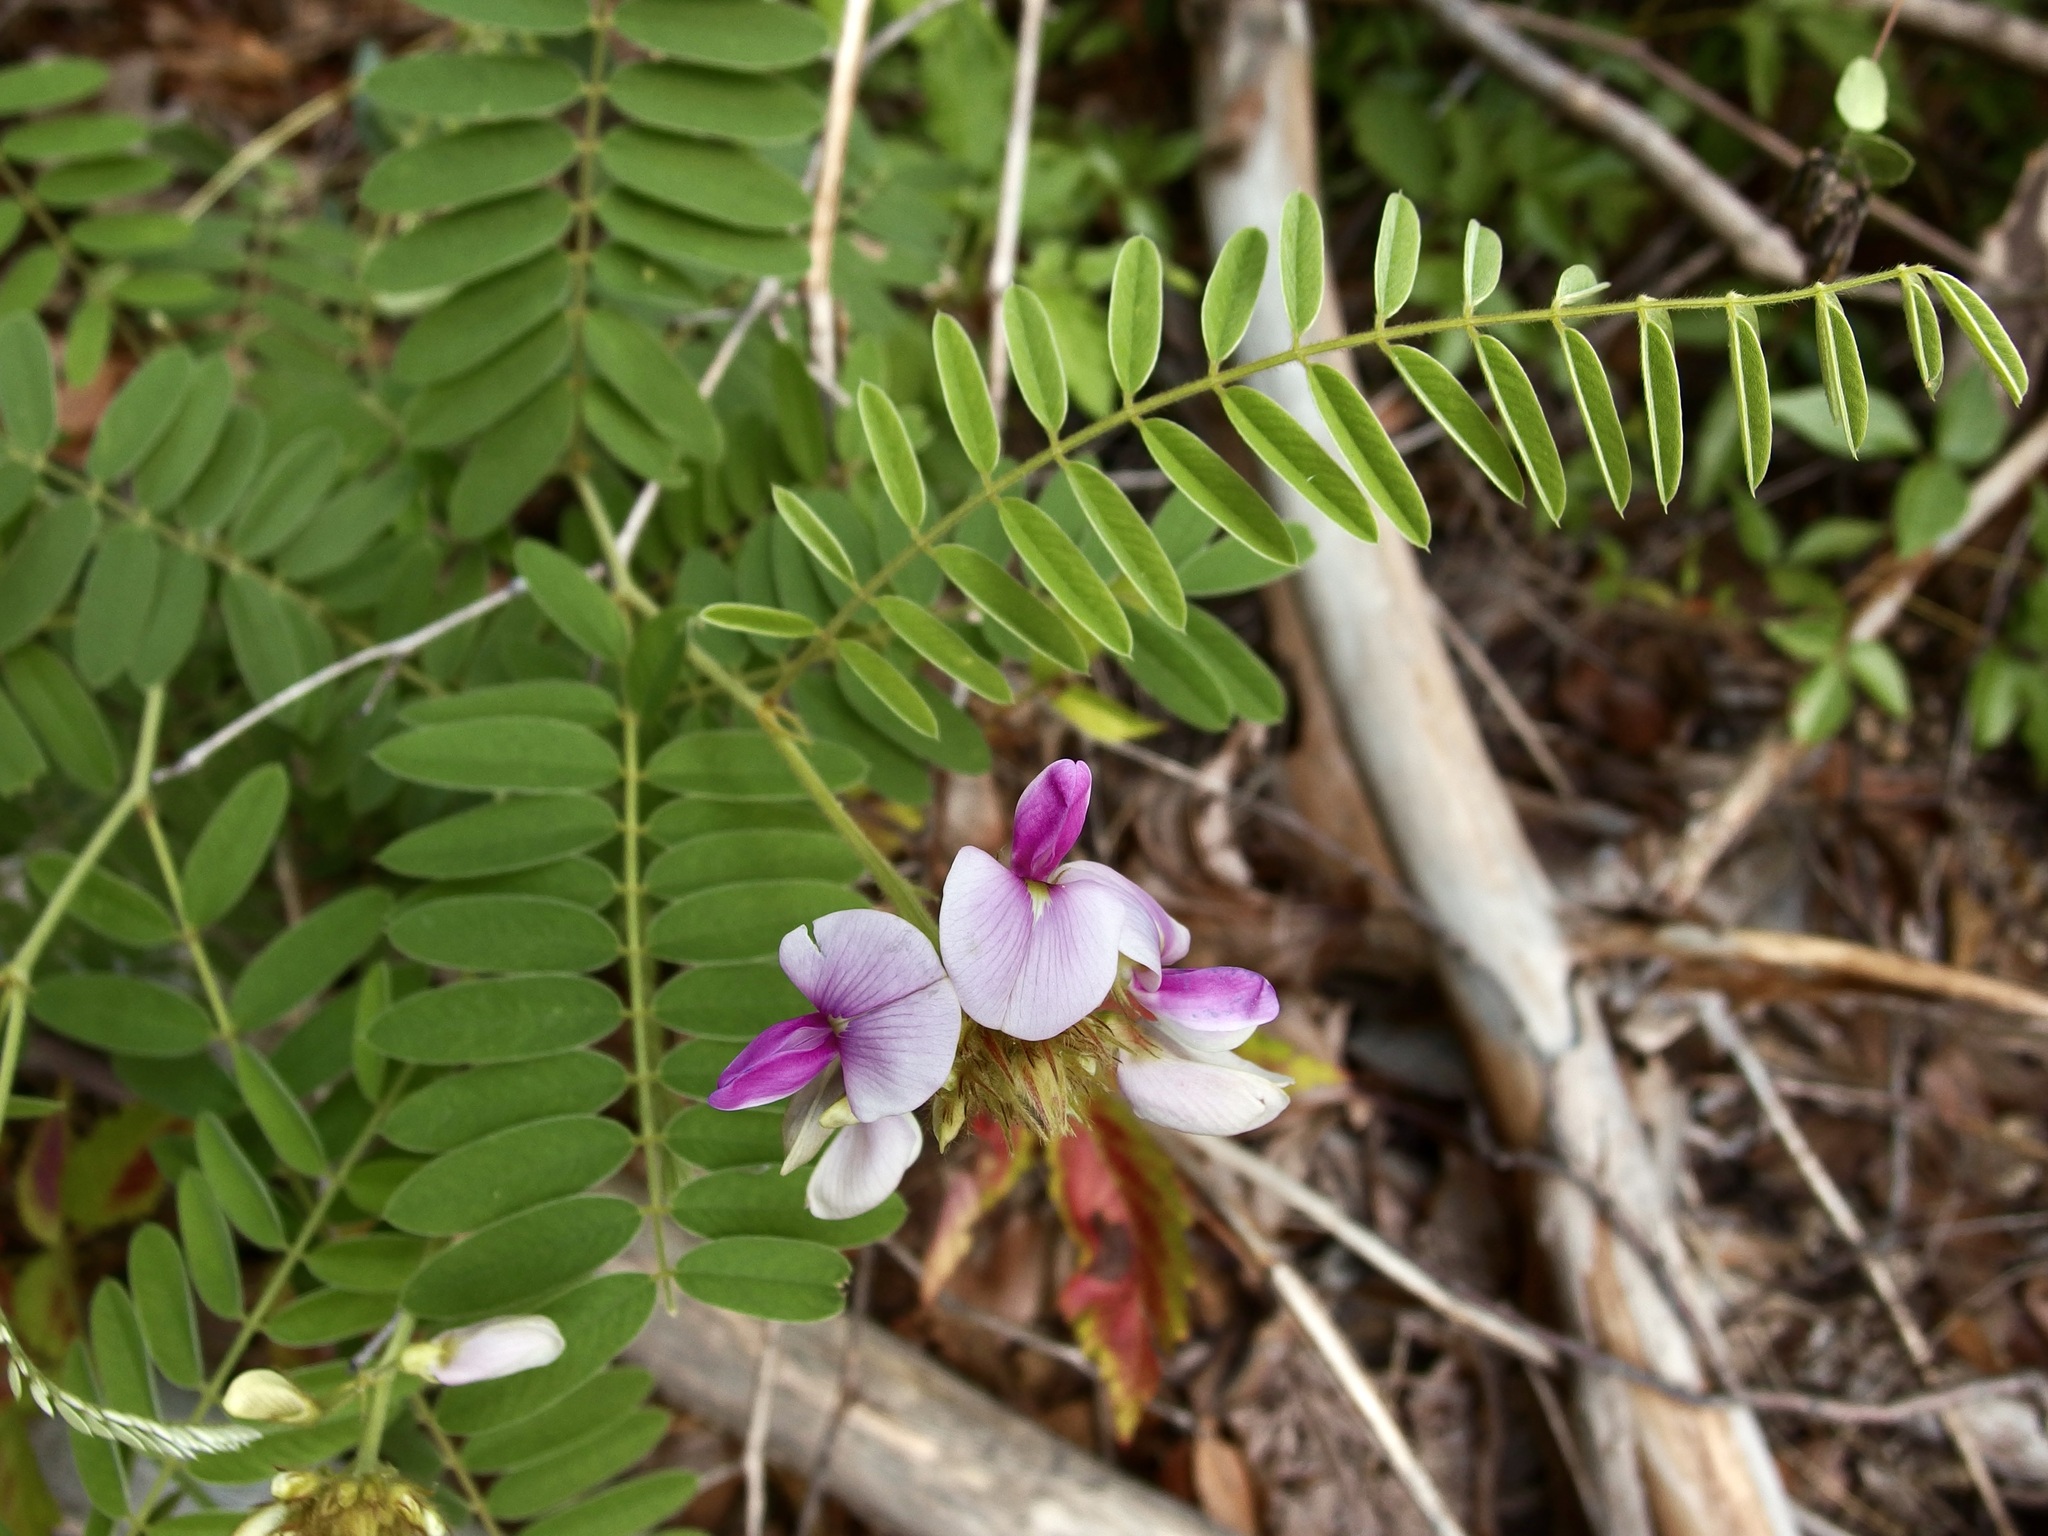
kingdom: Plantae
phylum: Tracheophyta
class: Magnoliopsida
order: Fabales
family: Fabaceae
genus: Tephrosia
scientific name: Tephrosia thurberi
